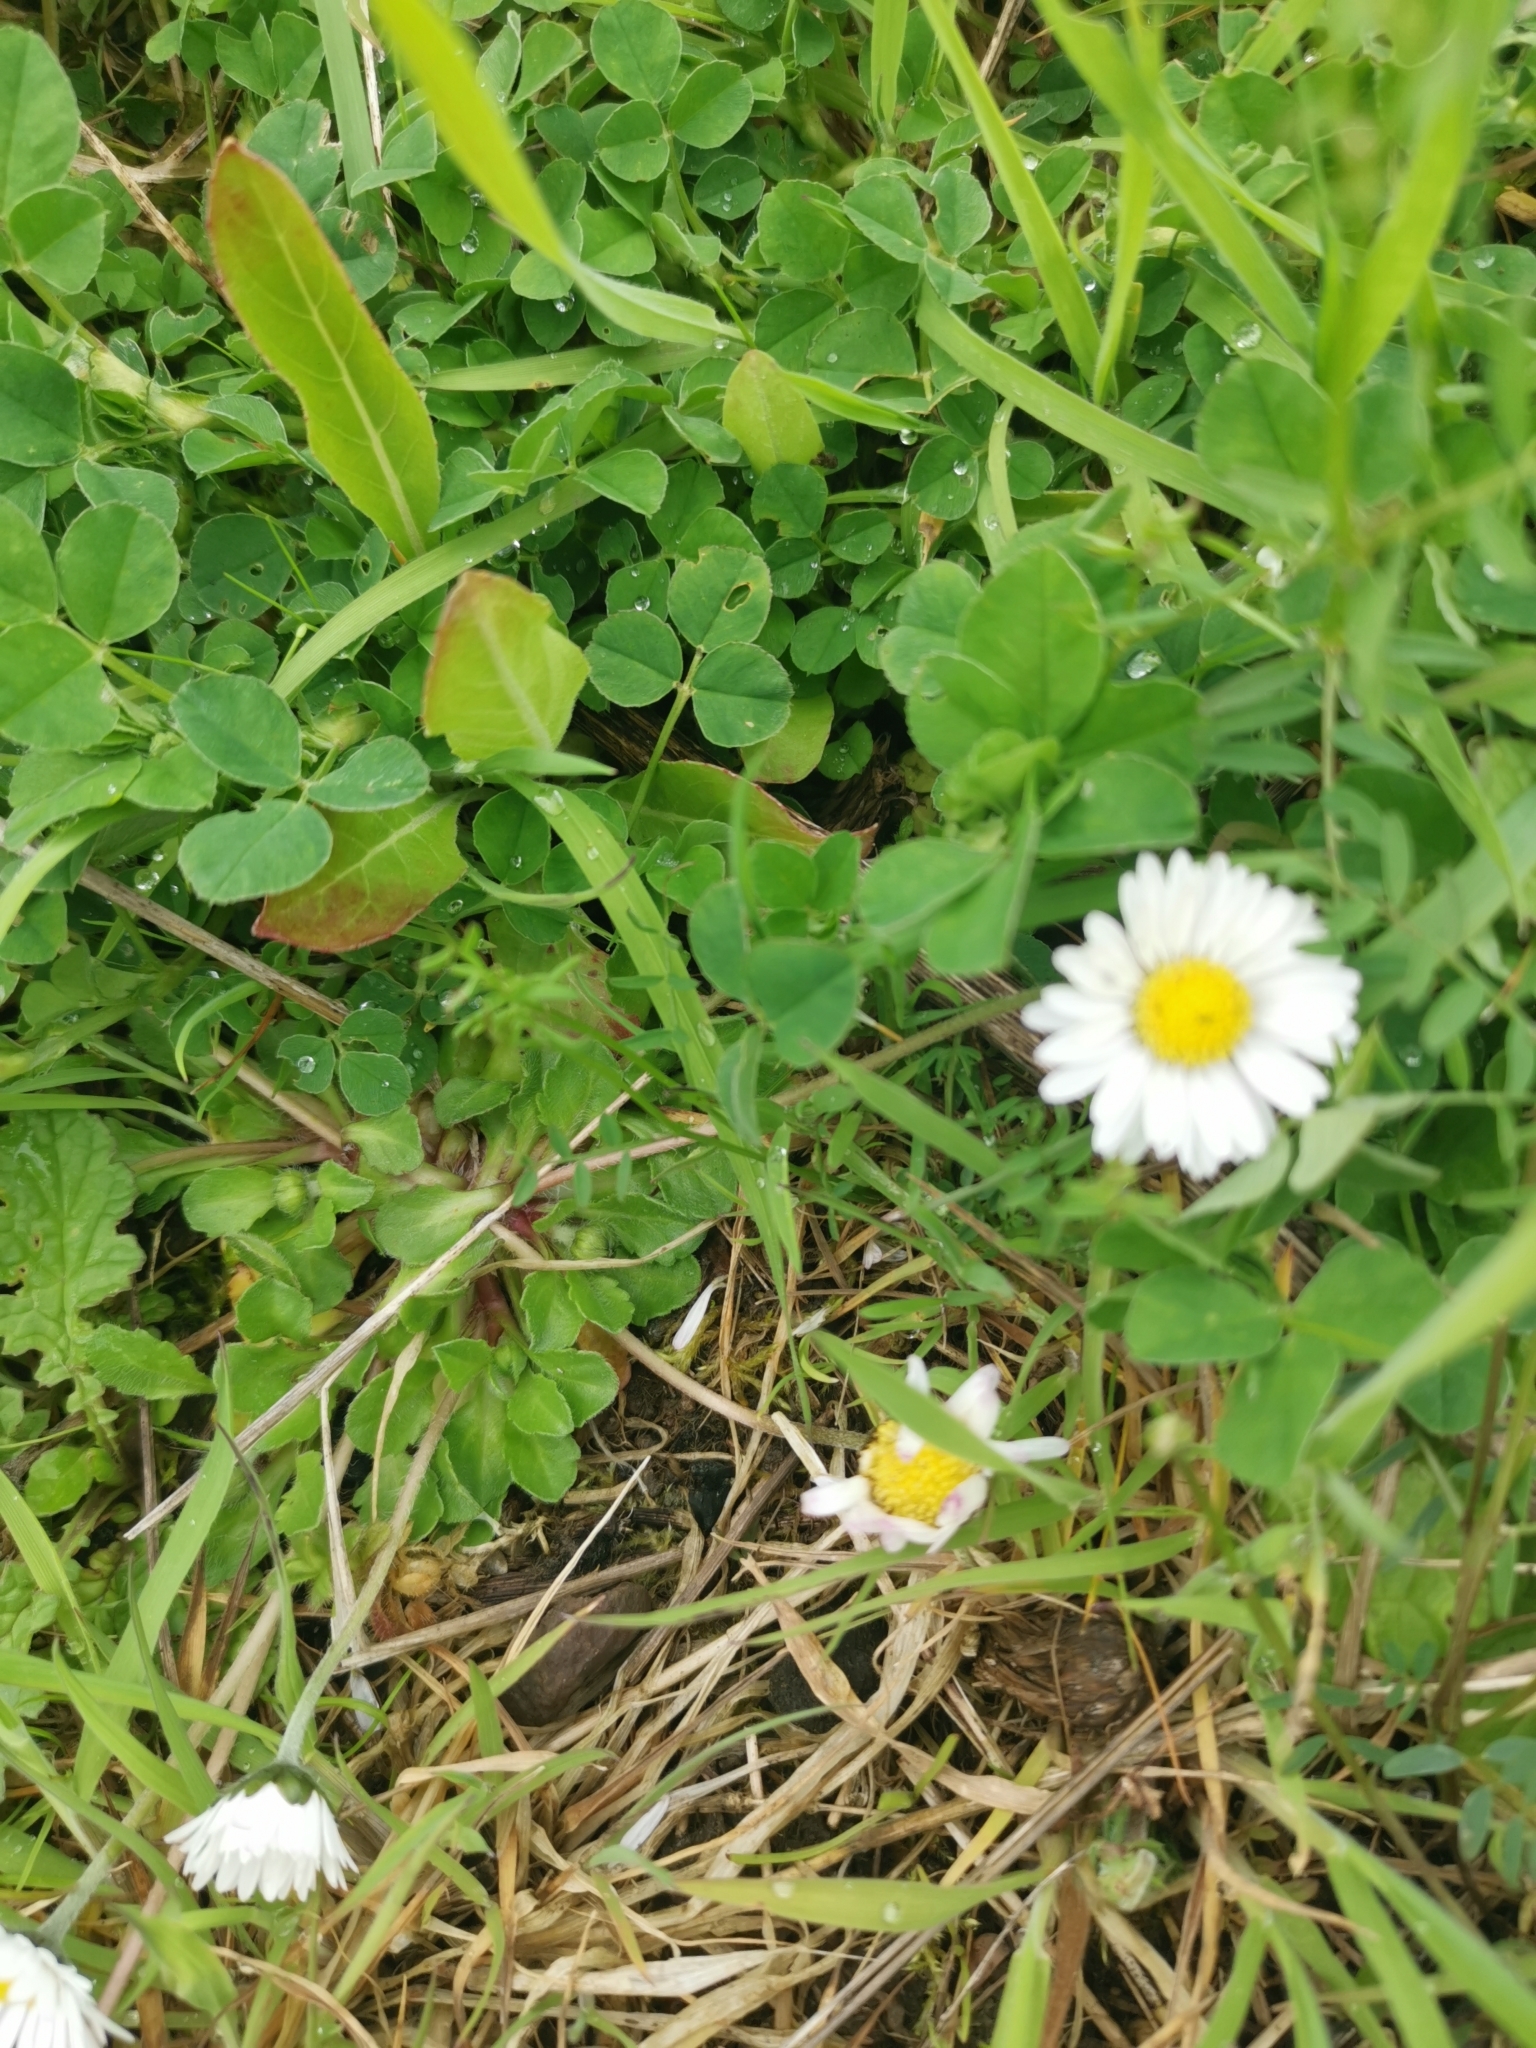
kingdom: Plantae
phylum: Tracheophyta
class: Magnoliopsida
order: Asterales
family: Asteraceae
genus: Bellis
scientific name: Bellis perennis
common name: Lawndaisy
